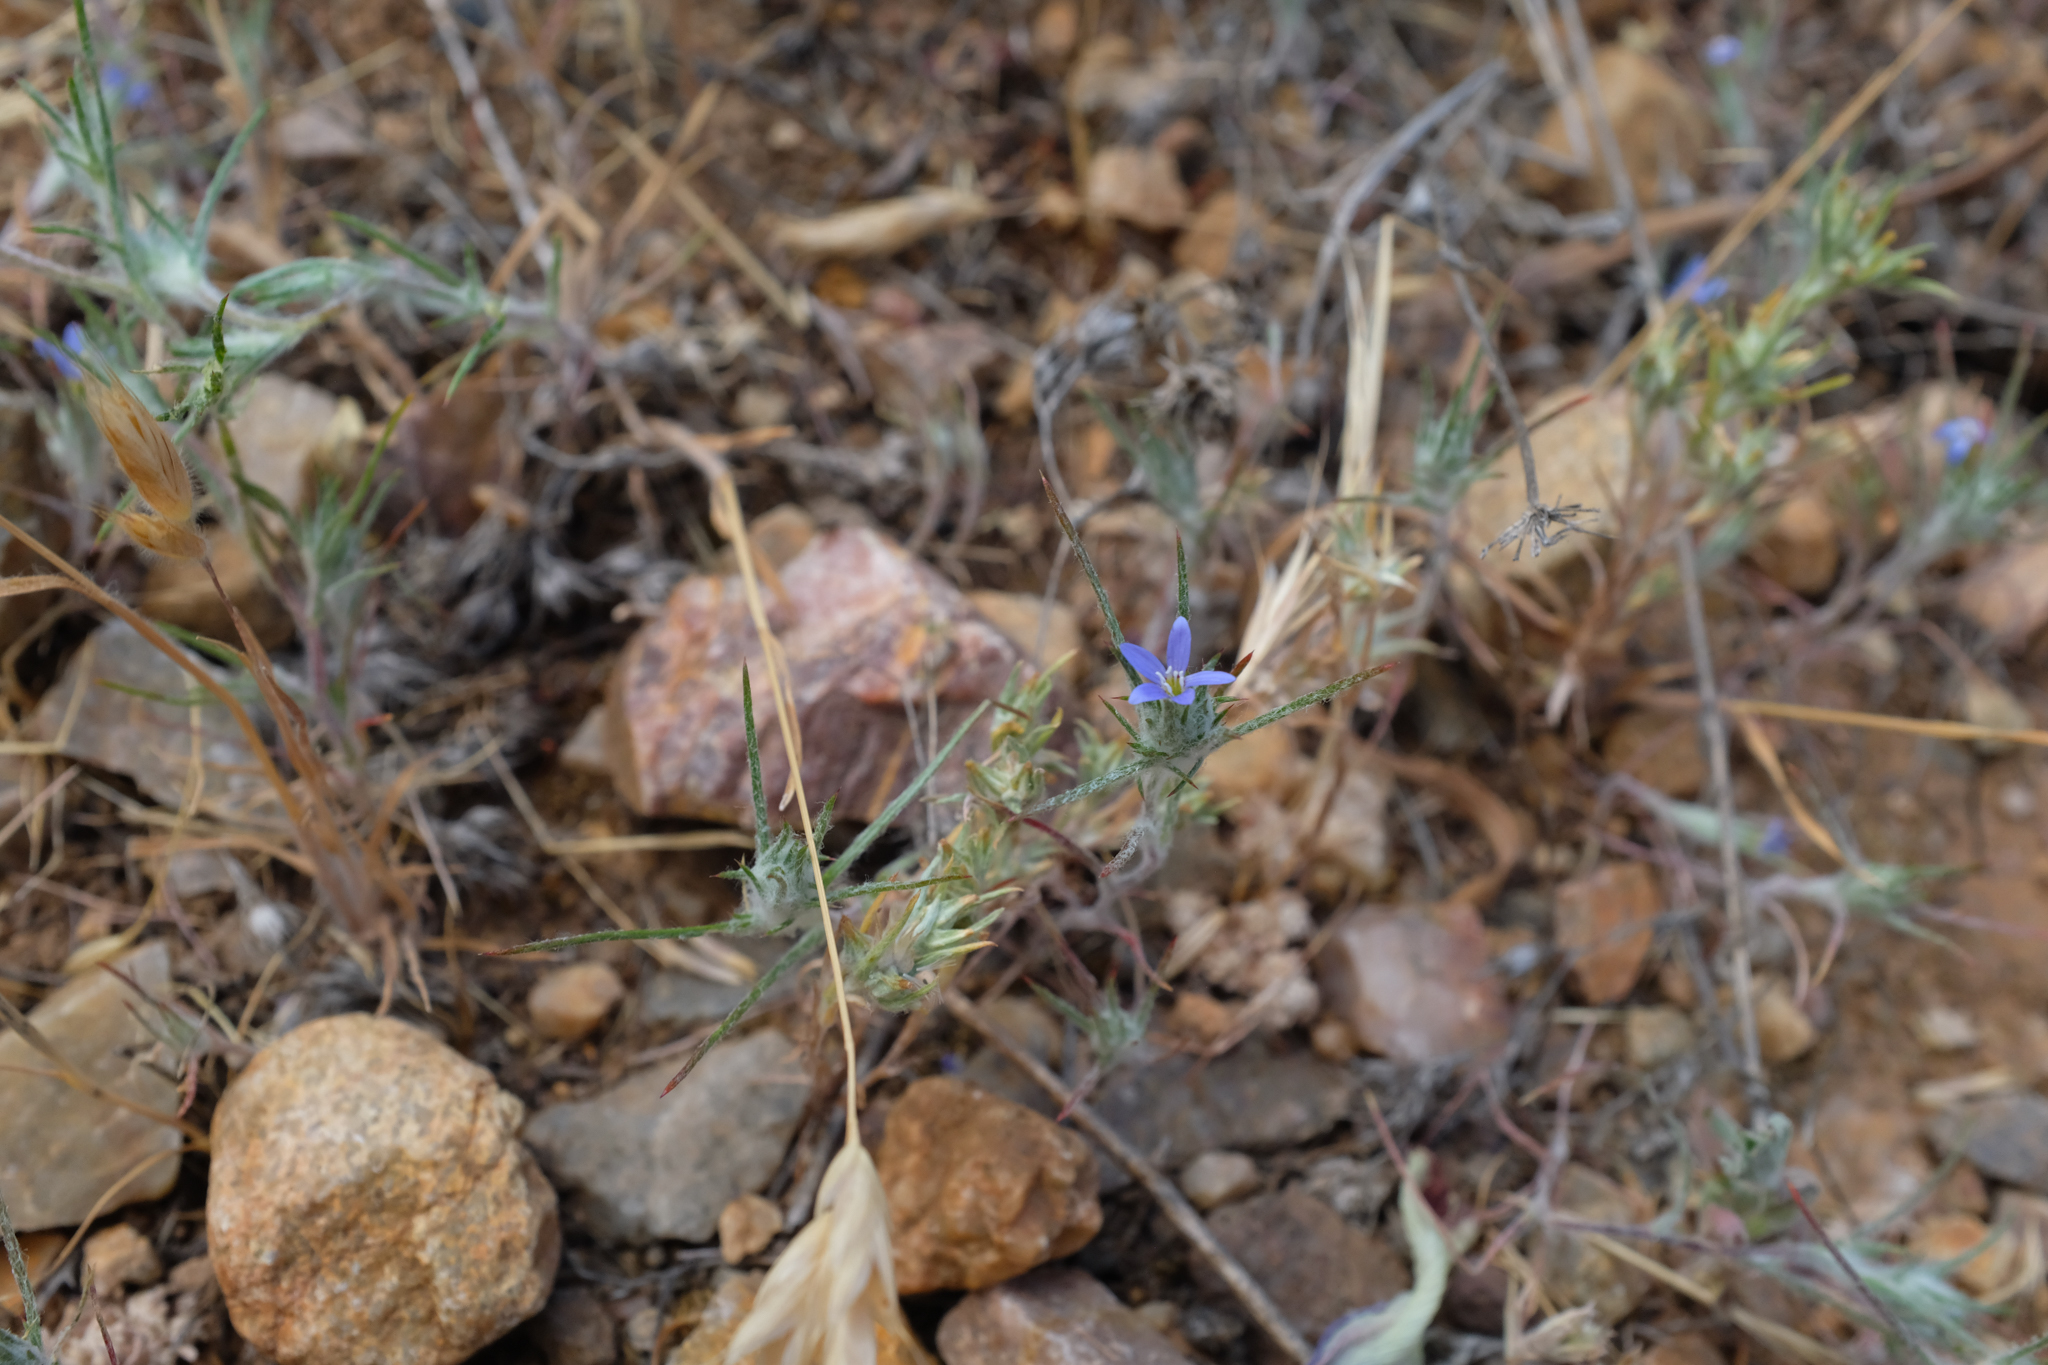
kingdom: Plantae
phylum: Tracheophyta
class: Magnoliopsida
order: Ericales
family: Polemoniaceae
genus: Eriastrum
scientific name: Eriastrum calocyanum
